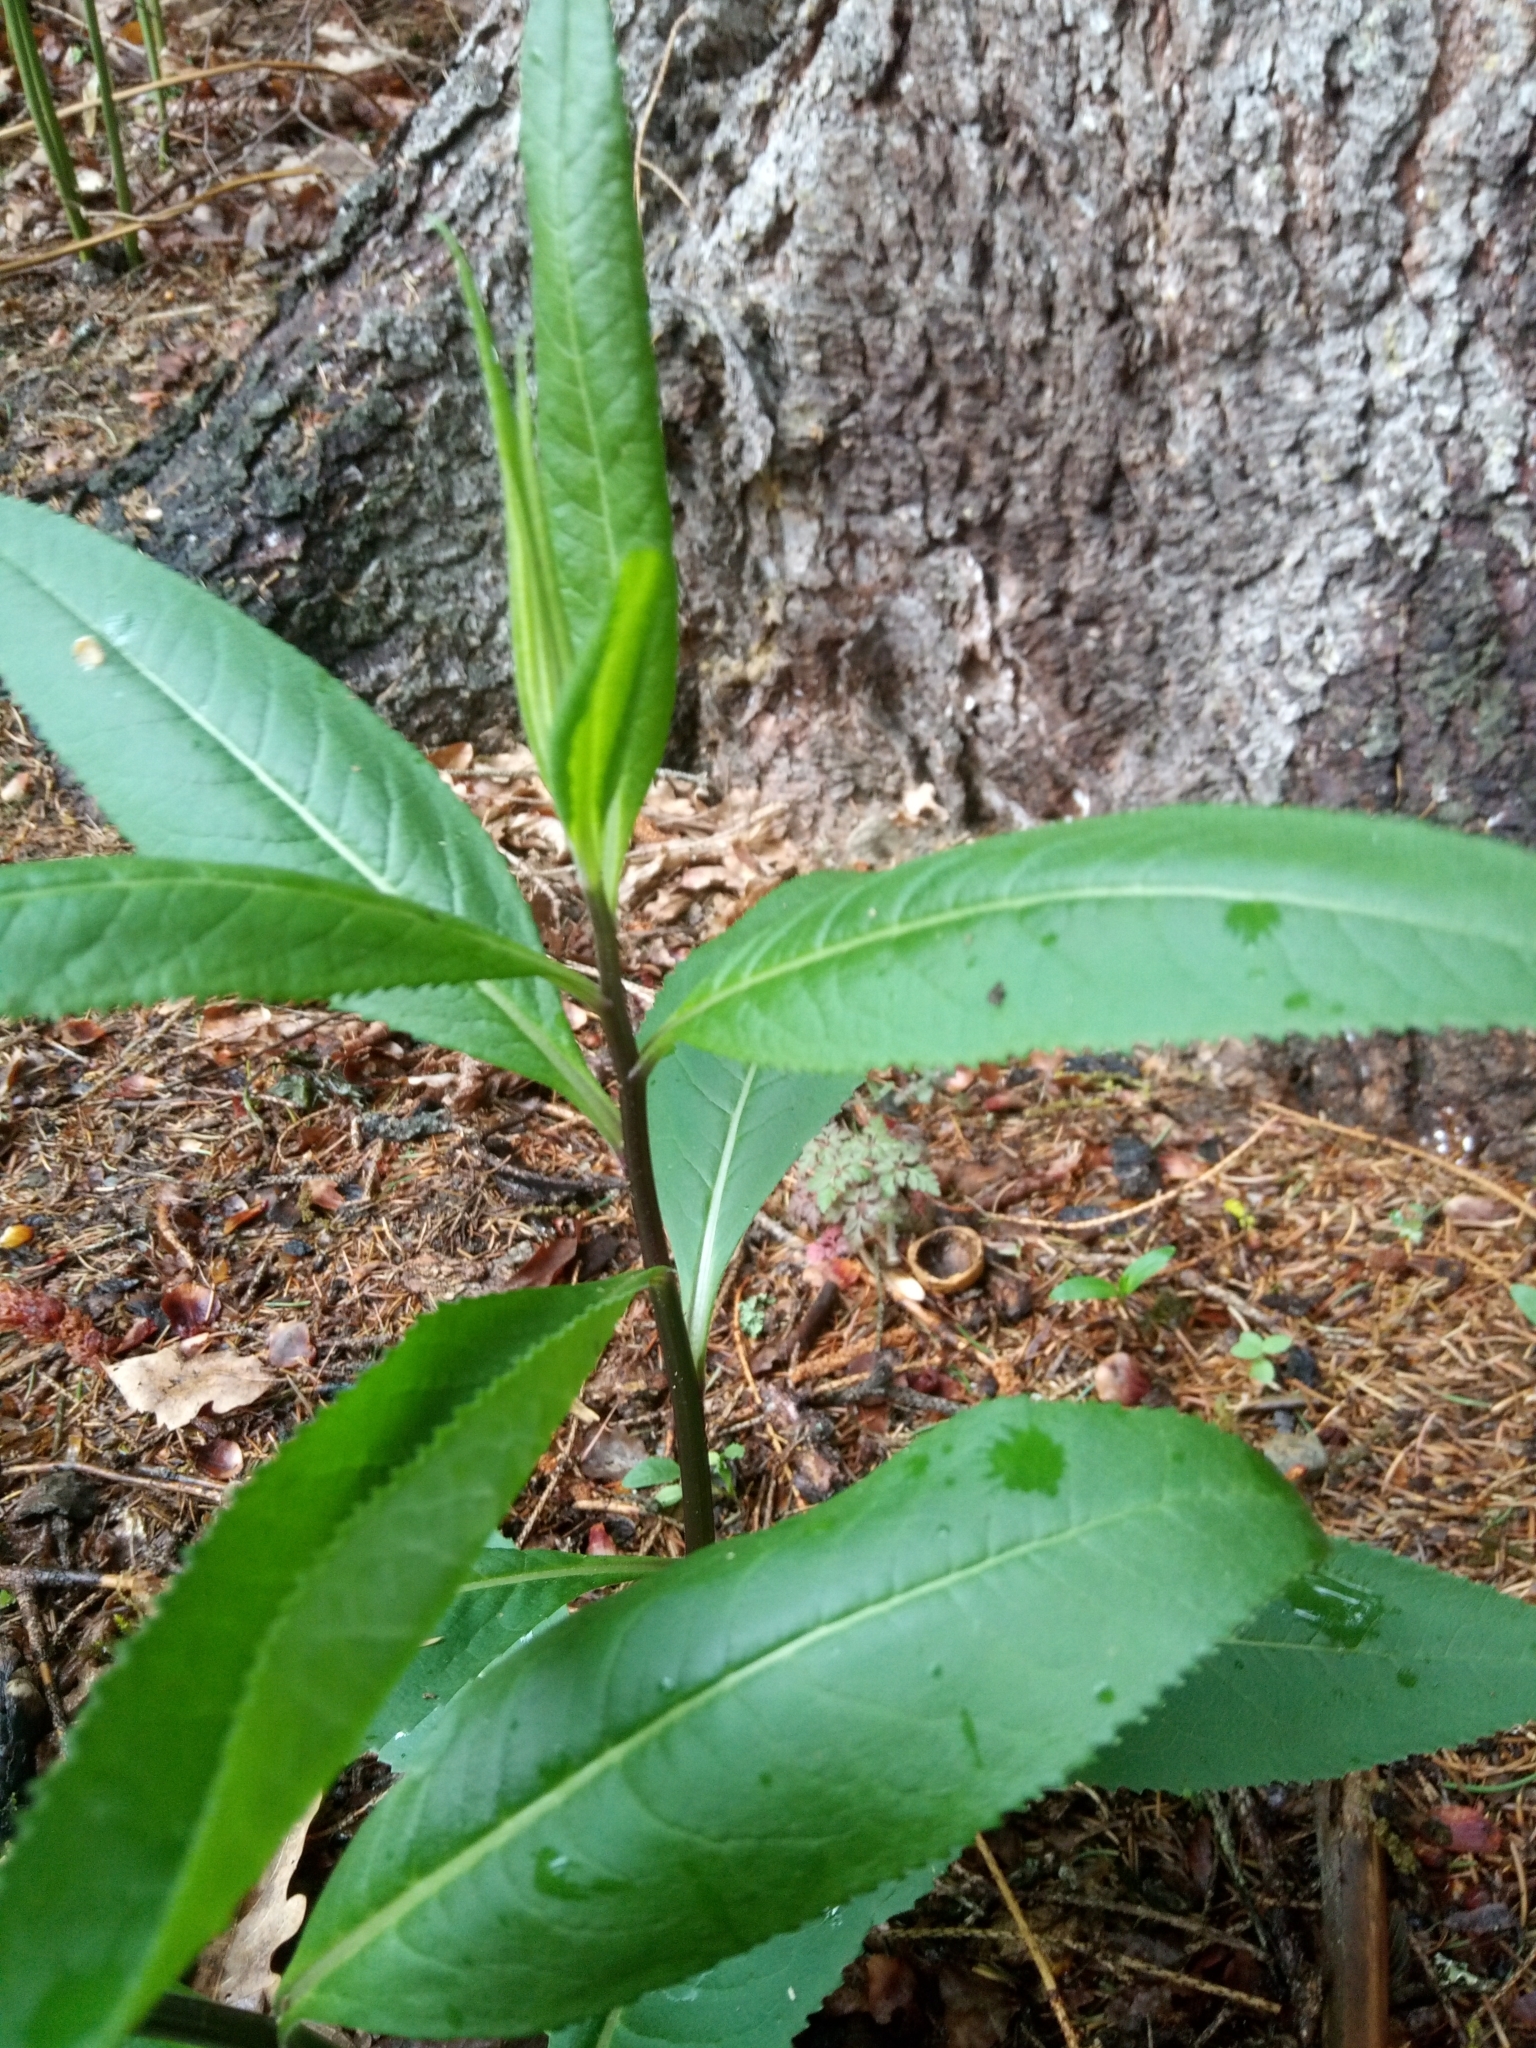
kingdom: Plantae
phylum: Tracheophyta
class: Magnoliopsida
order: Asterales
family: Asteraceae
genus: Senecio
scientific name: Senecio ovatus
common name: Wood ragwort
